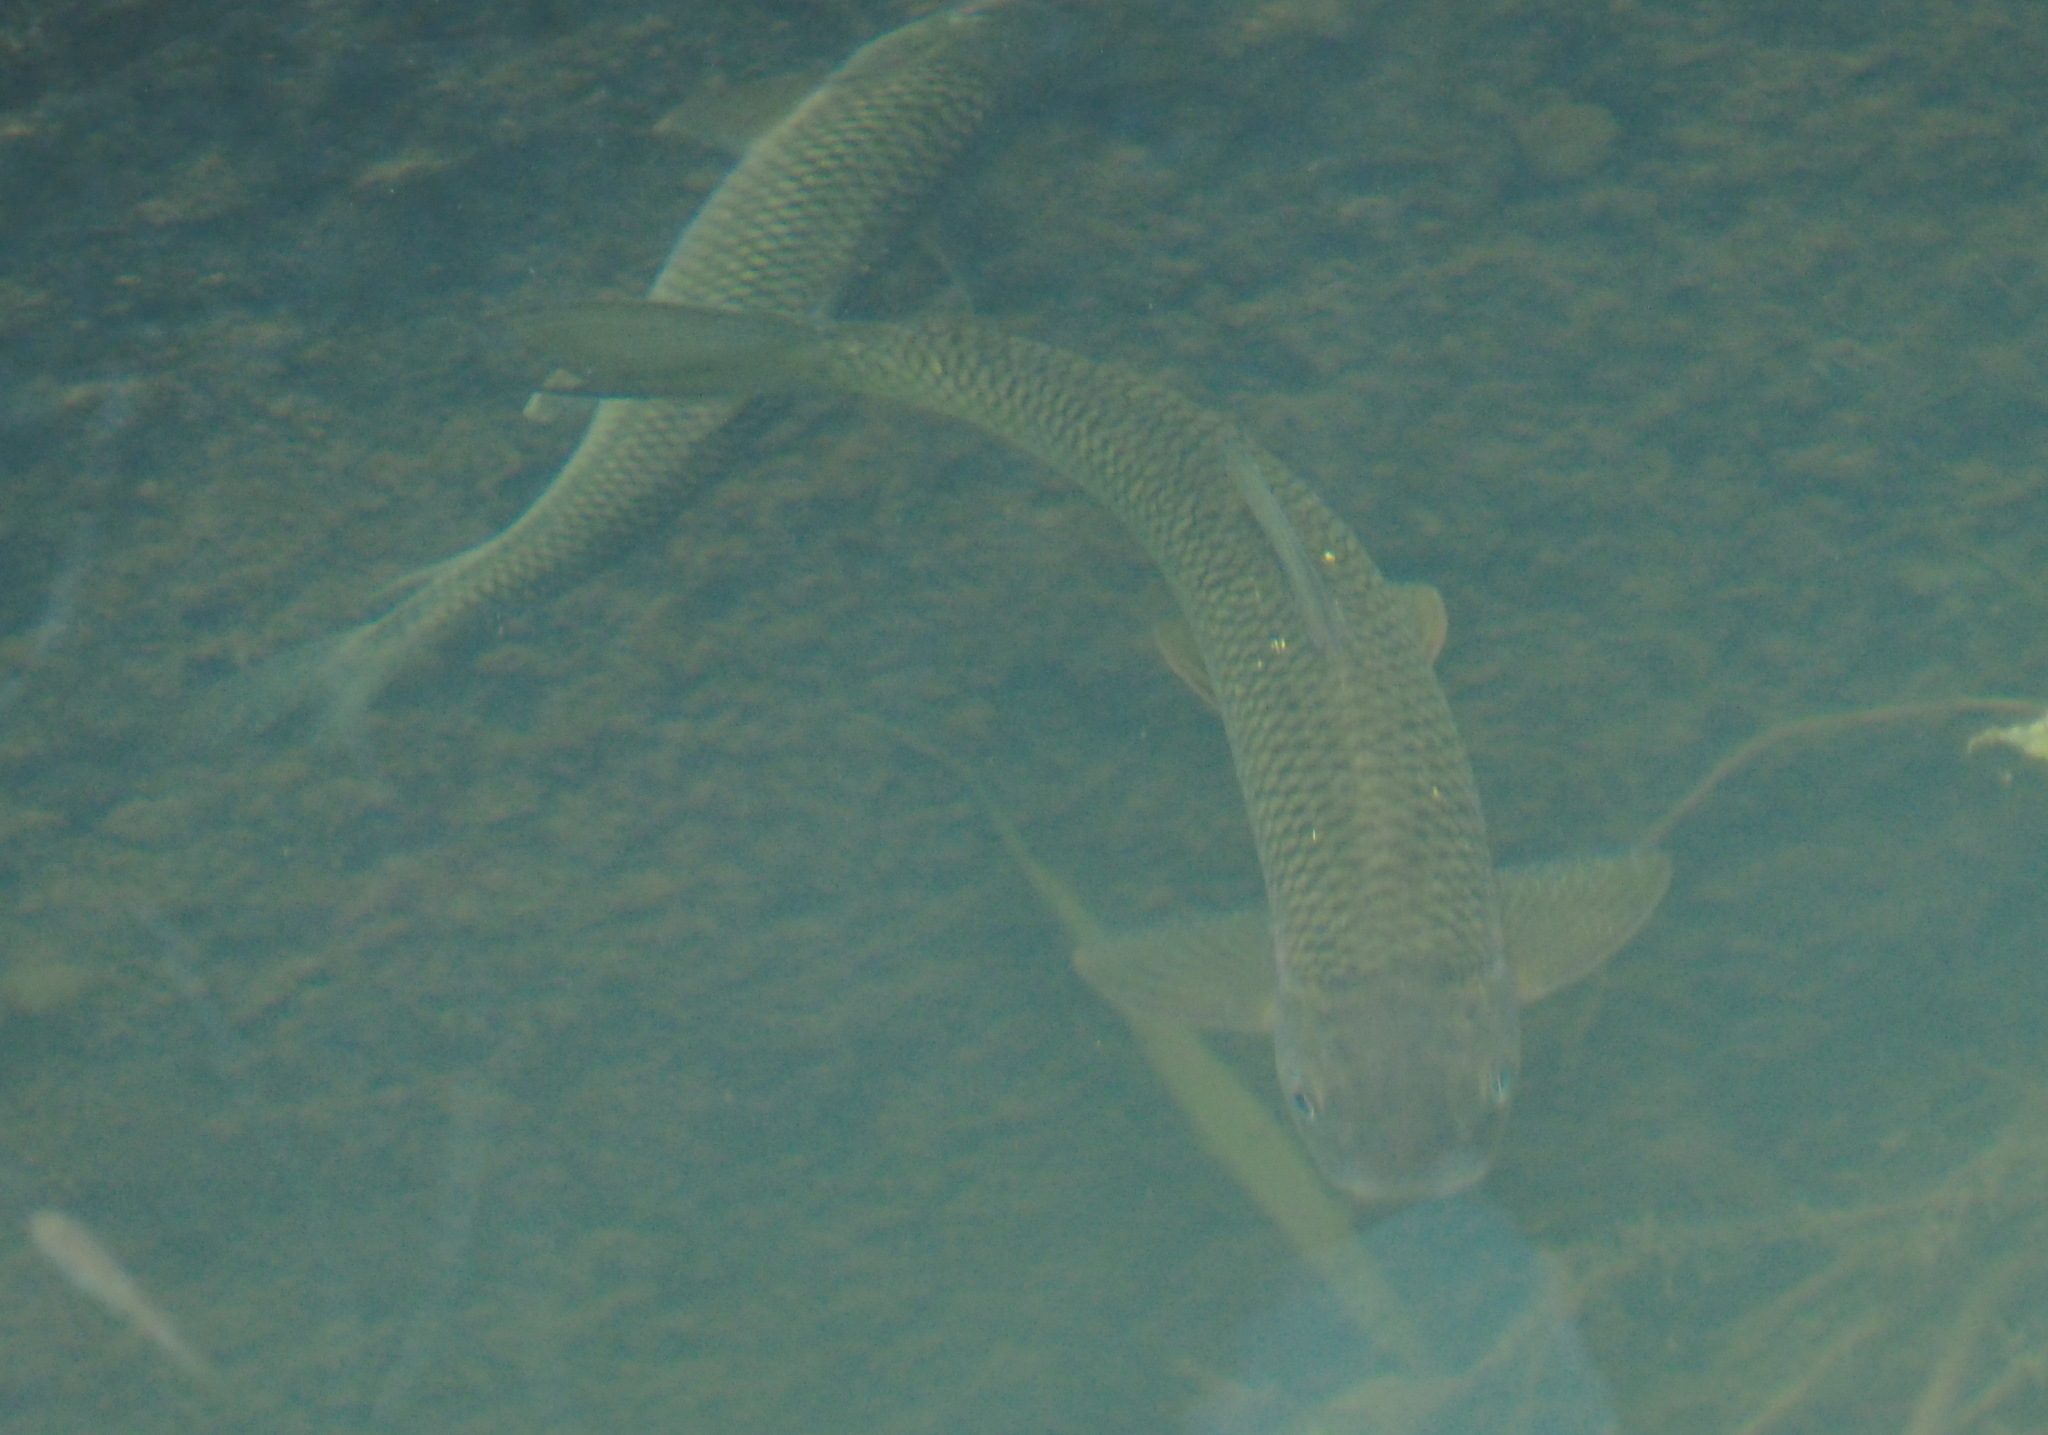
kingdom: Animalia
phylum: Chordata
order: Cypriniformes
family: Cyprinidae
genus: Onychostoma
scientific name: Onychostoma barbatulum
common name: Taiwan shoveljaw carp
